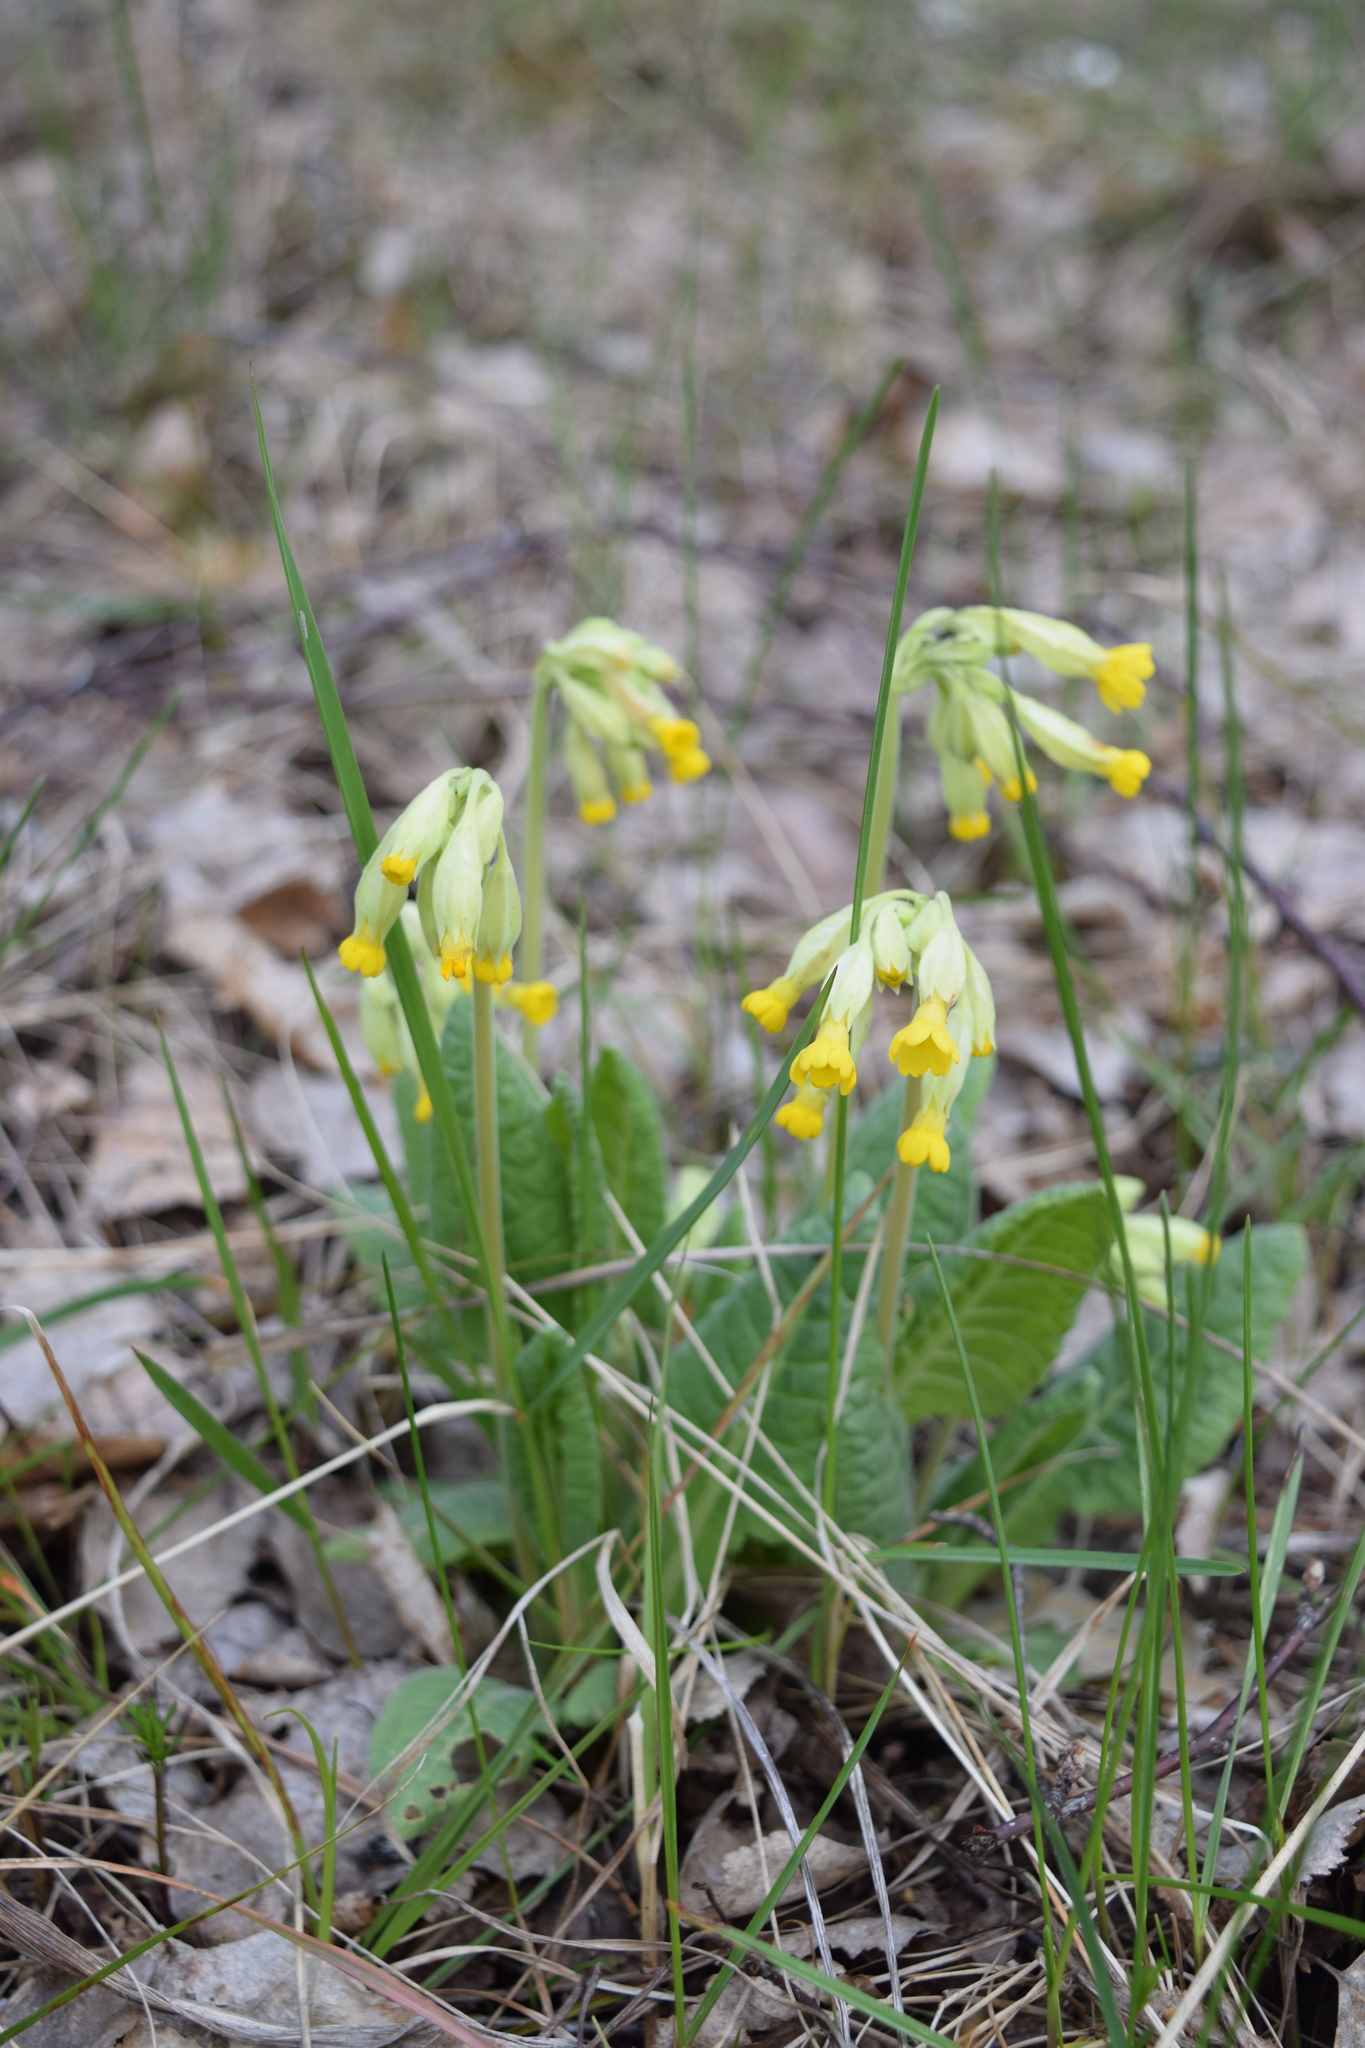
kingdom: Plantae
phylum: Tracheophyta
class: Magnoliopsida
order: Ericales
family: Primulaceae
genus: Primula
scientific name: Primula veris
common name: Cowslip
